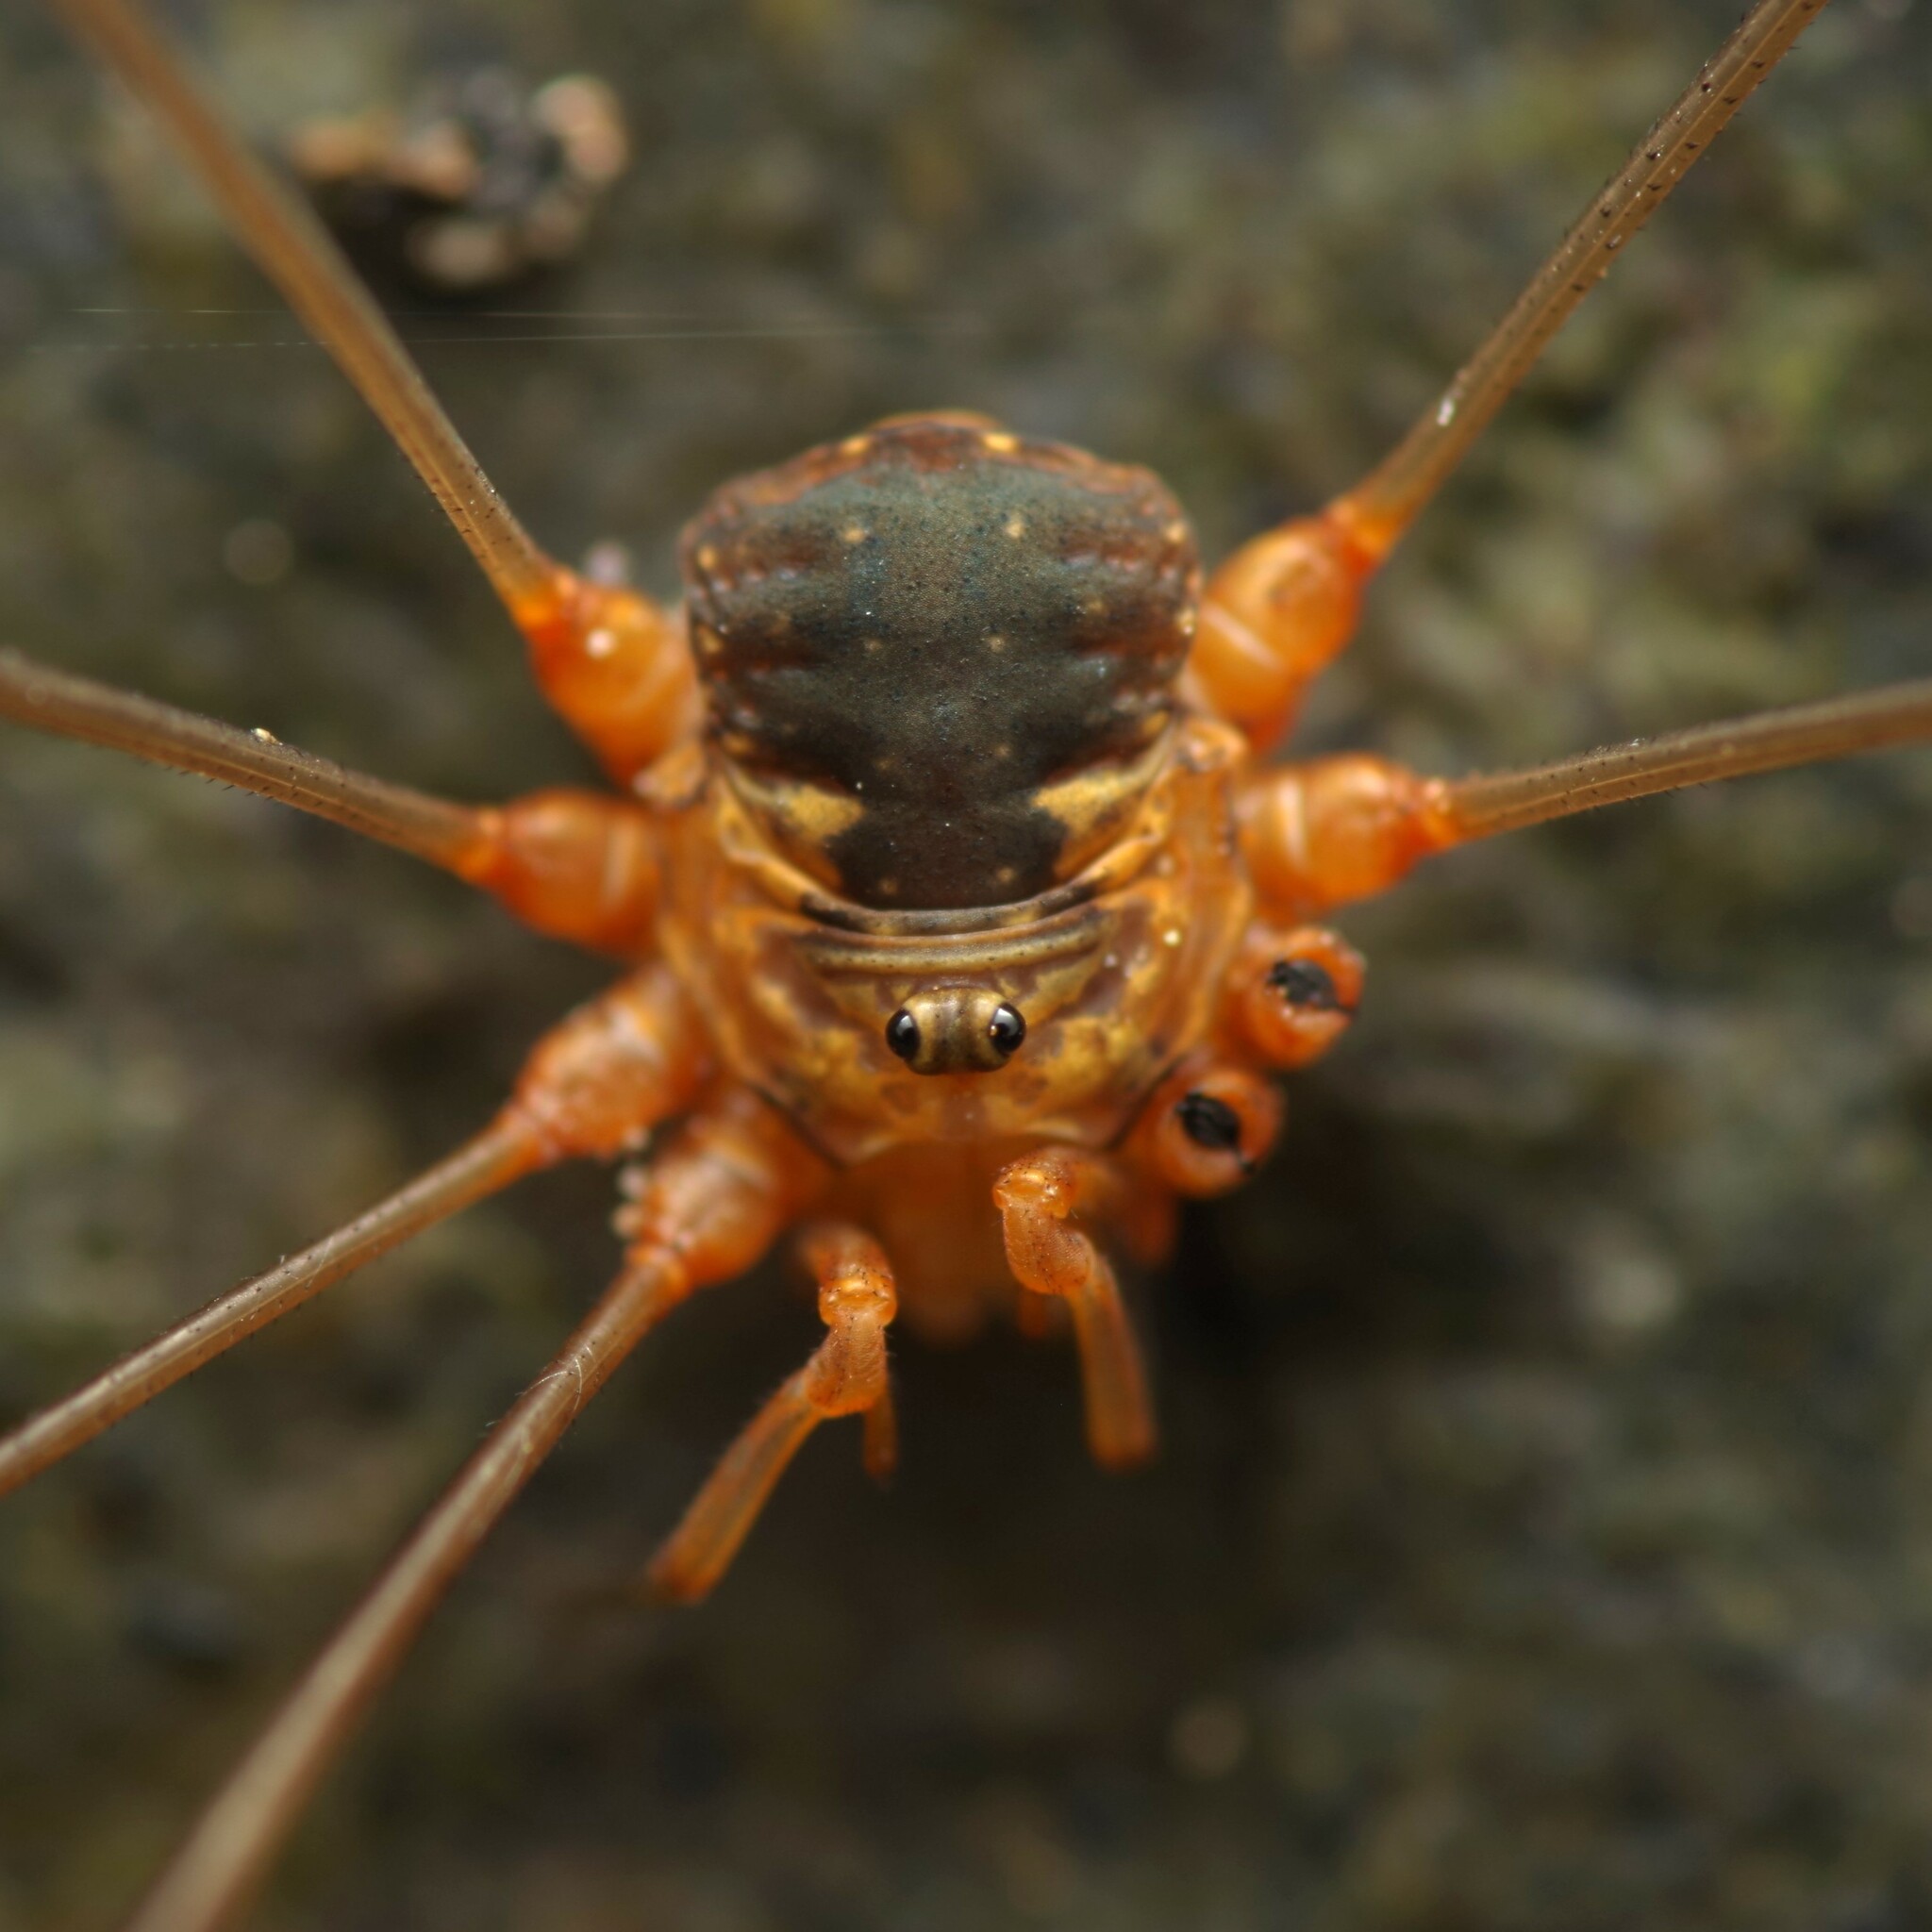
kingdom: Animalia
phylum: Arthropoda
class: Arachnida
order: Opiliones
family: Phalangiidae
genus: Dicranopalpus
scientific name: Dicranopalpus catariegensis
